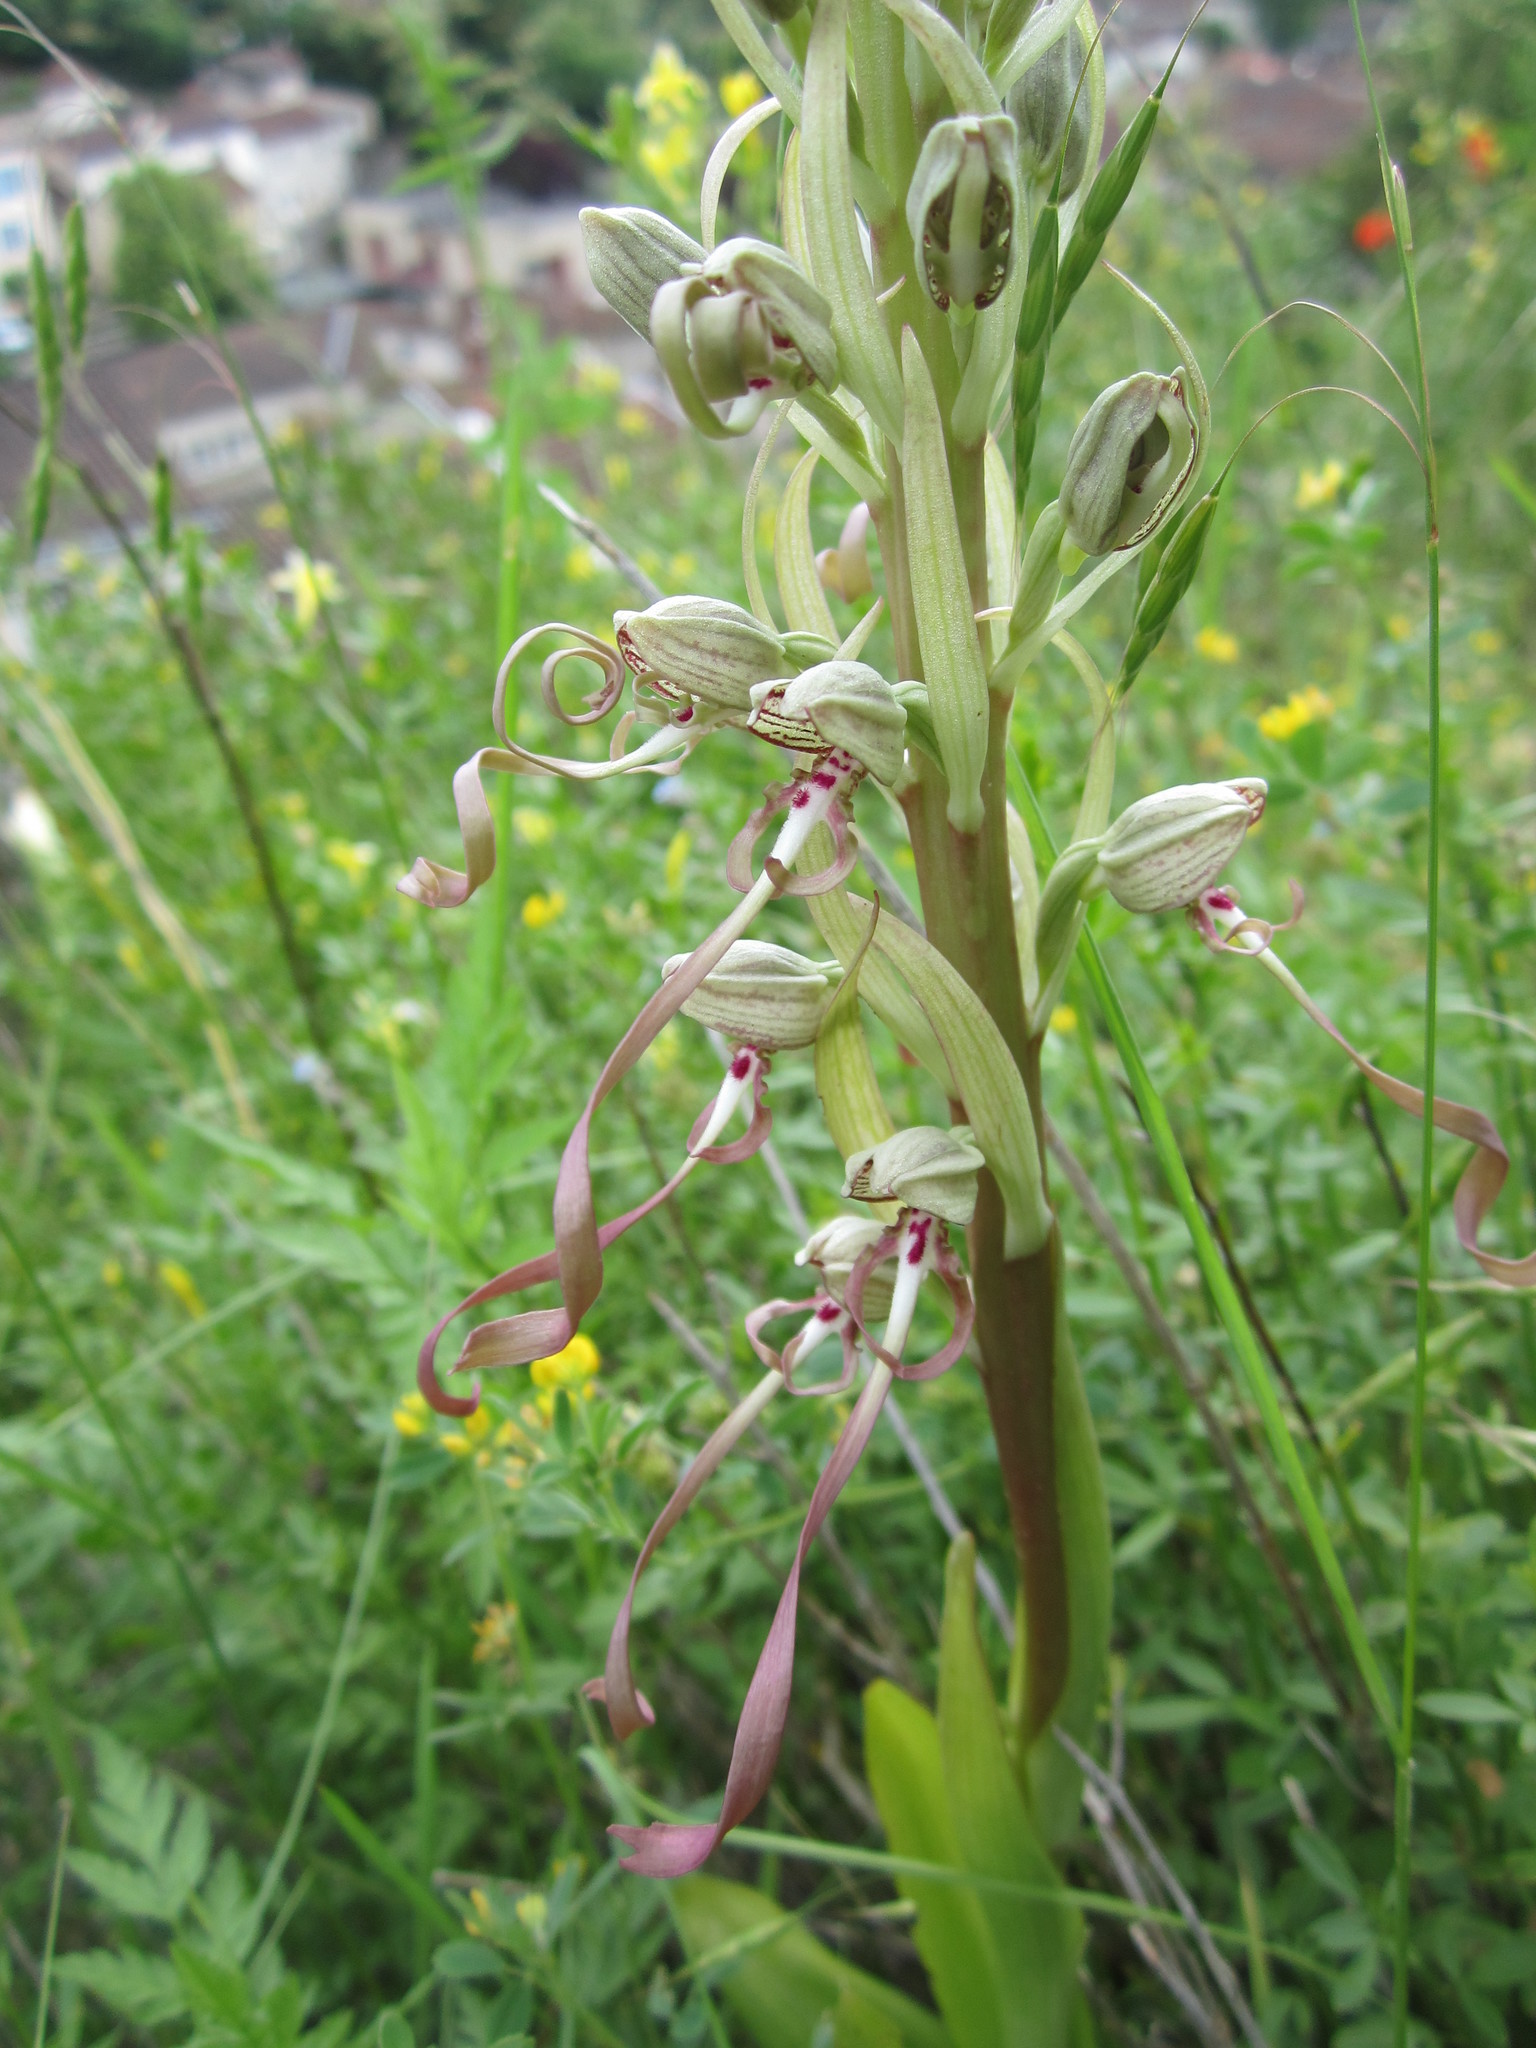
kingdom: Plantae
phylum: Tracheophyta
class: Liliopsida
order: Asparagales
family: Orchidaceae
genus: Himantoglossum
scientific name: Himantoglossum hircinum
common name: Lizard orchid
